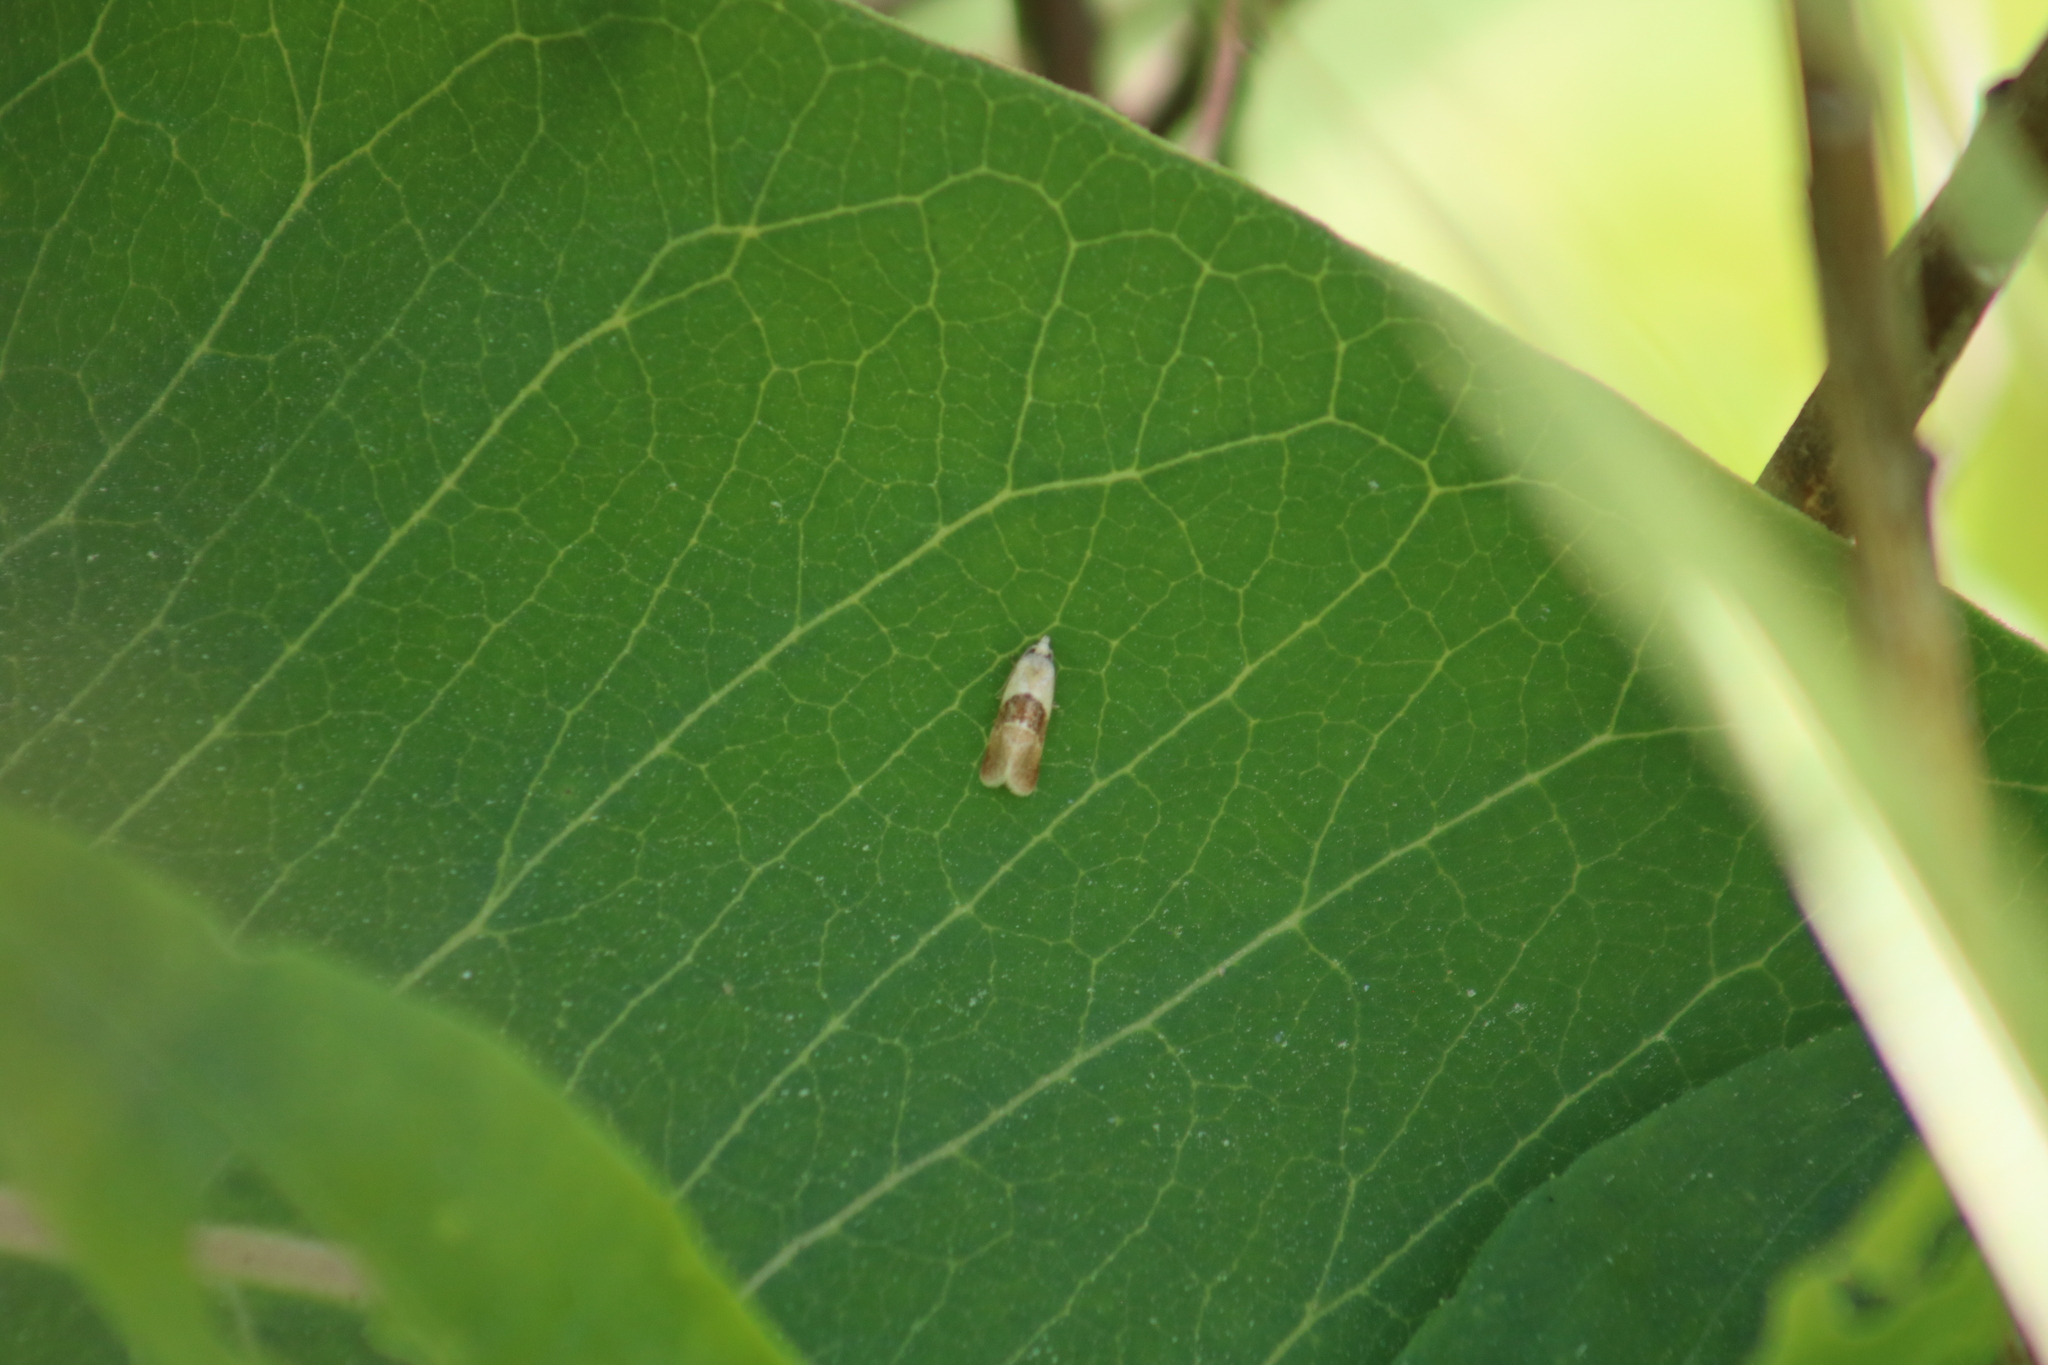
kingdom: Animalia
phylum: Arthropoda
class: Insecta
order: Lepidoptera
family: Tortricidae
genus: Phalonidia
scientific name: Phalonidia lepidana
